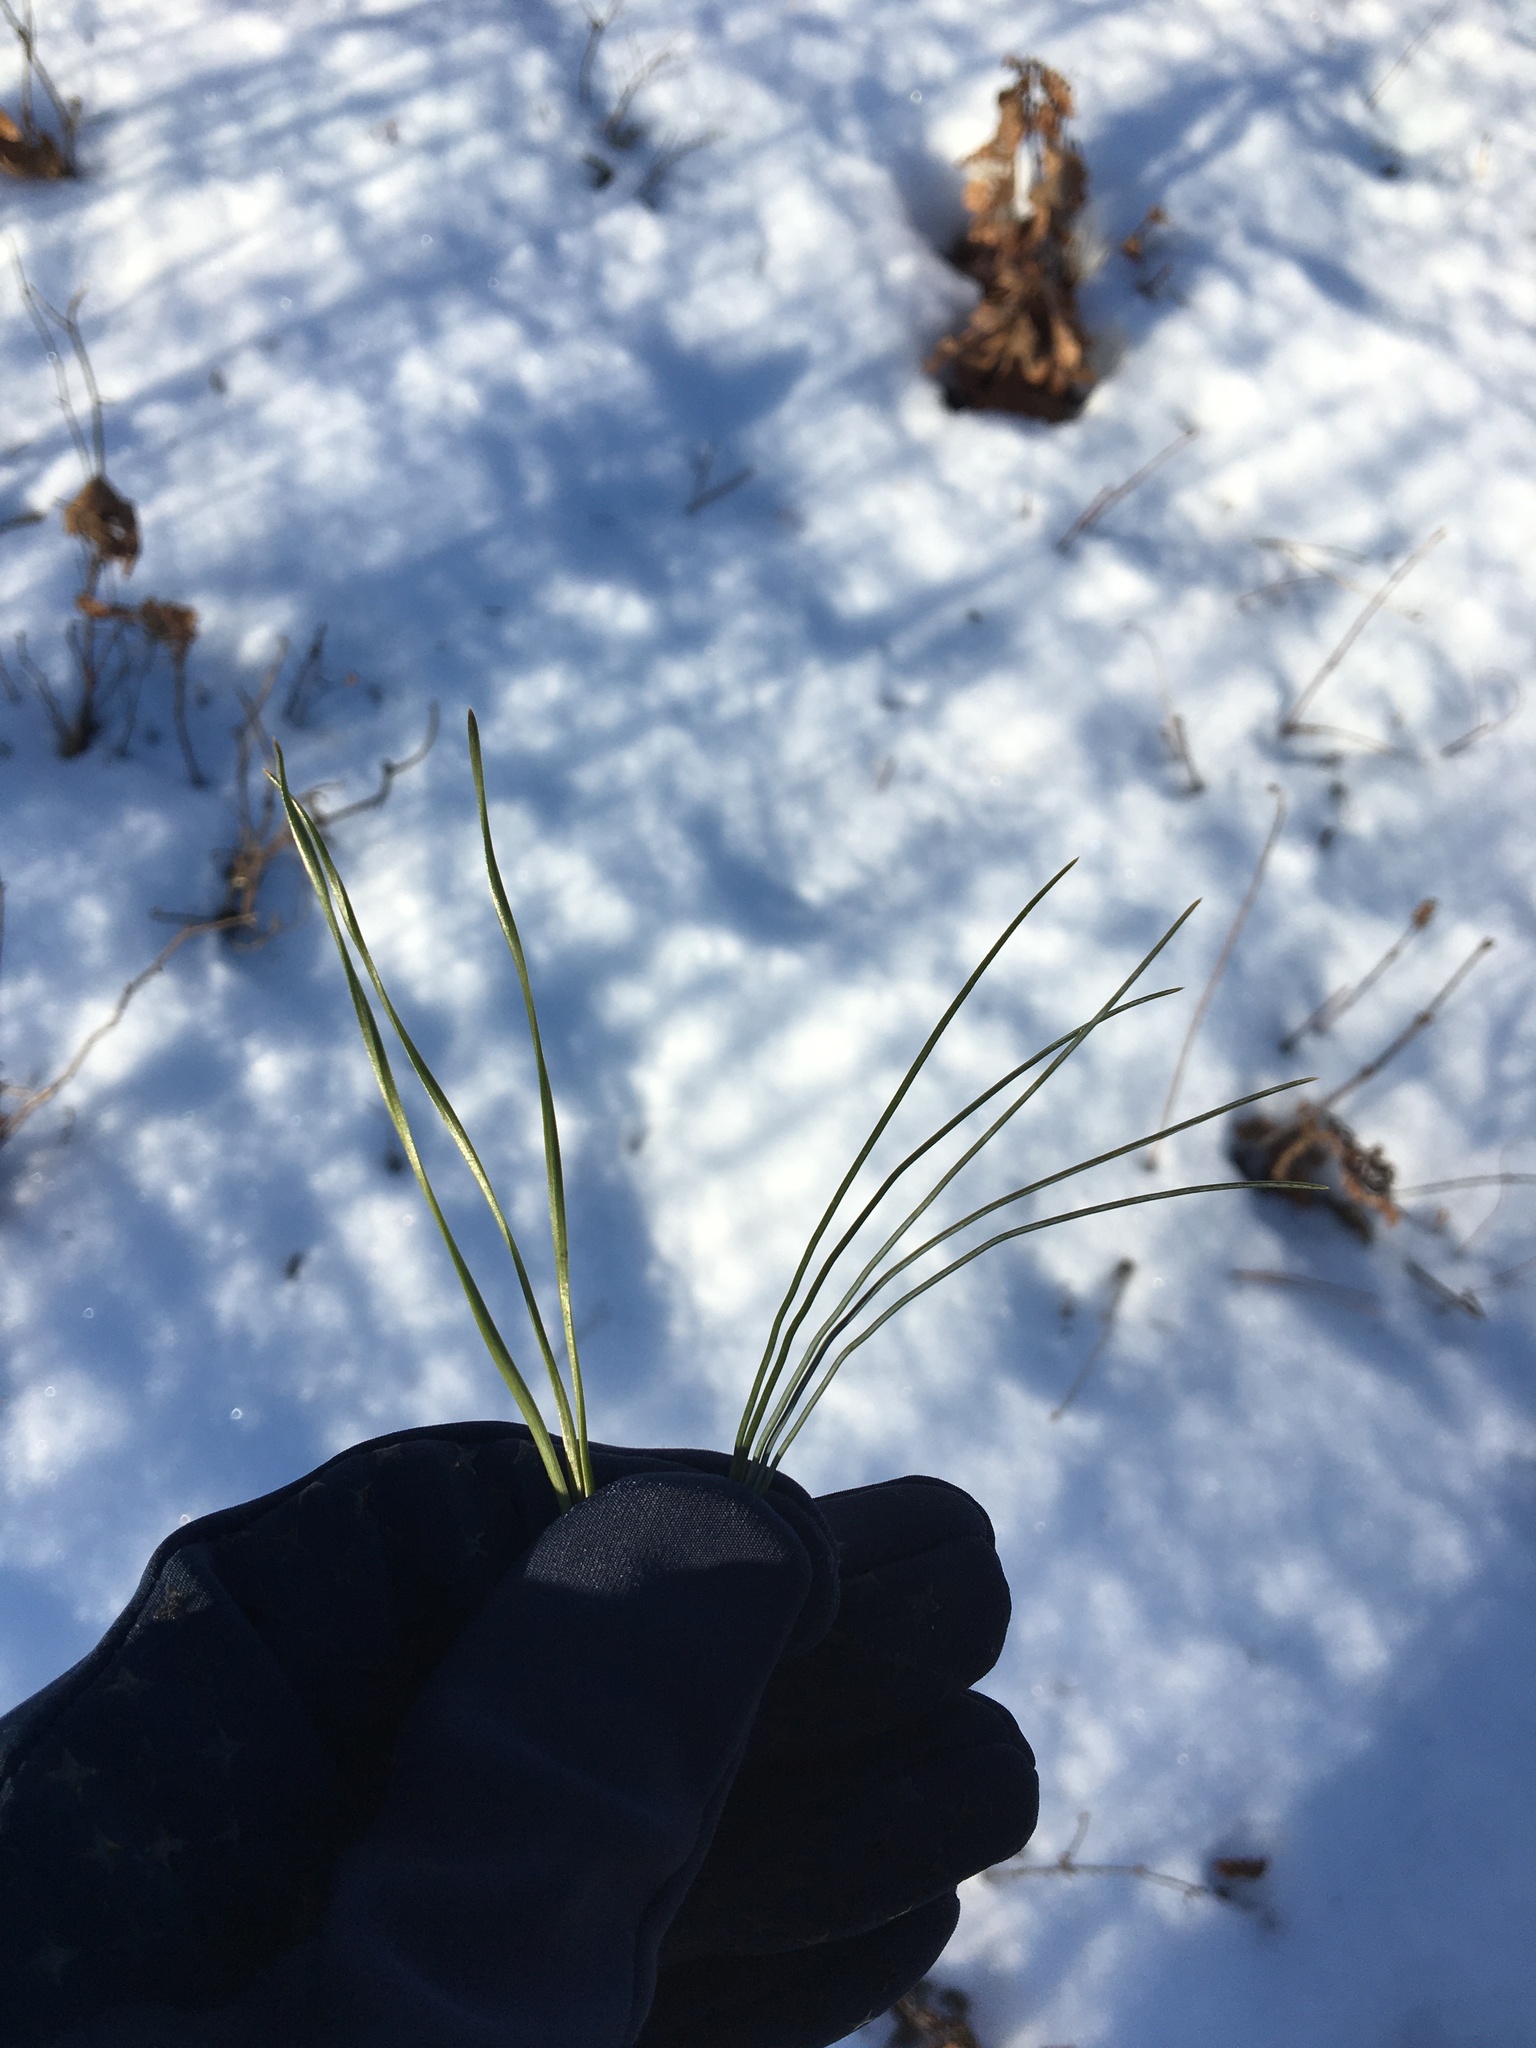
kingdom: Plantae
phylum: Tracheophyta
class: Pinopsida
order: Pinales
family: Pinaceae
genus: Pinus
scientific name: Pinus strobus
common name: Weymouth pine
